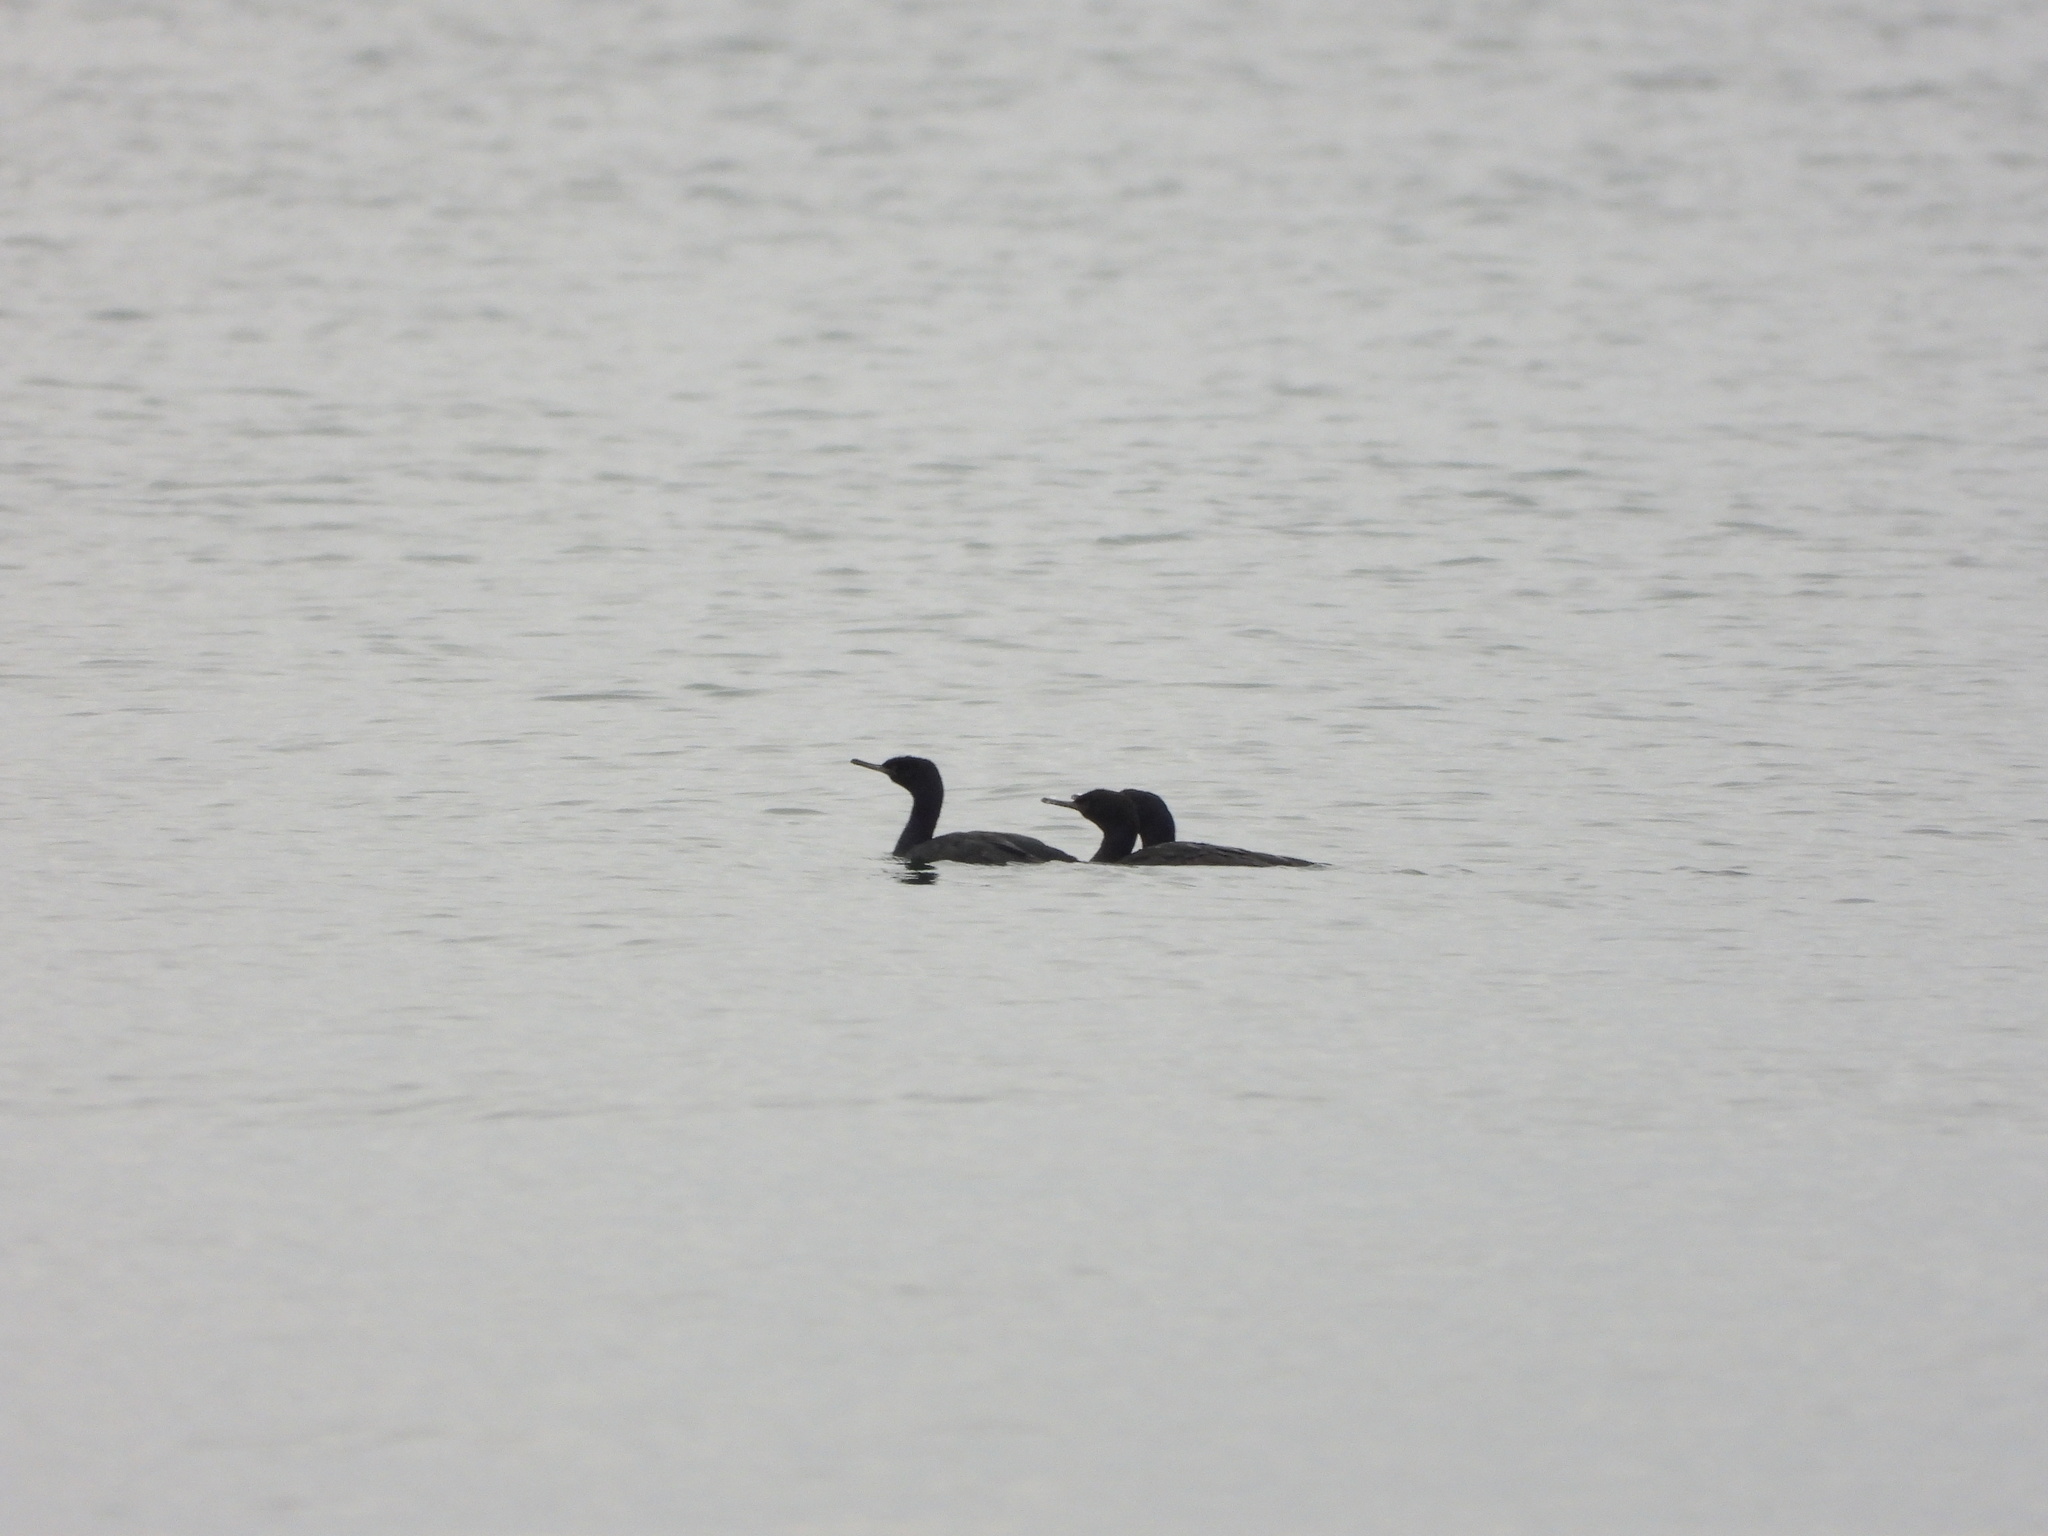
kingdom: Animalia
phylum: Chordata
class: Aves
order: Suliformes
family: Phalacrocoracidae
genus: Phalacrocorax
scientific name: Phalacrocorax pelagicus
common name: Pelagic cormorant
